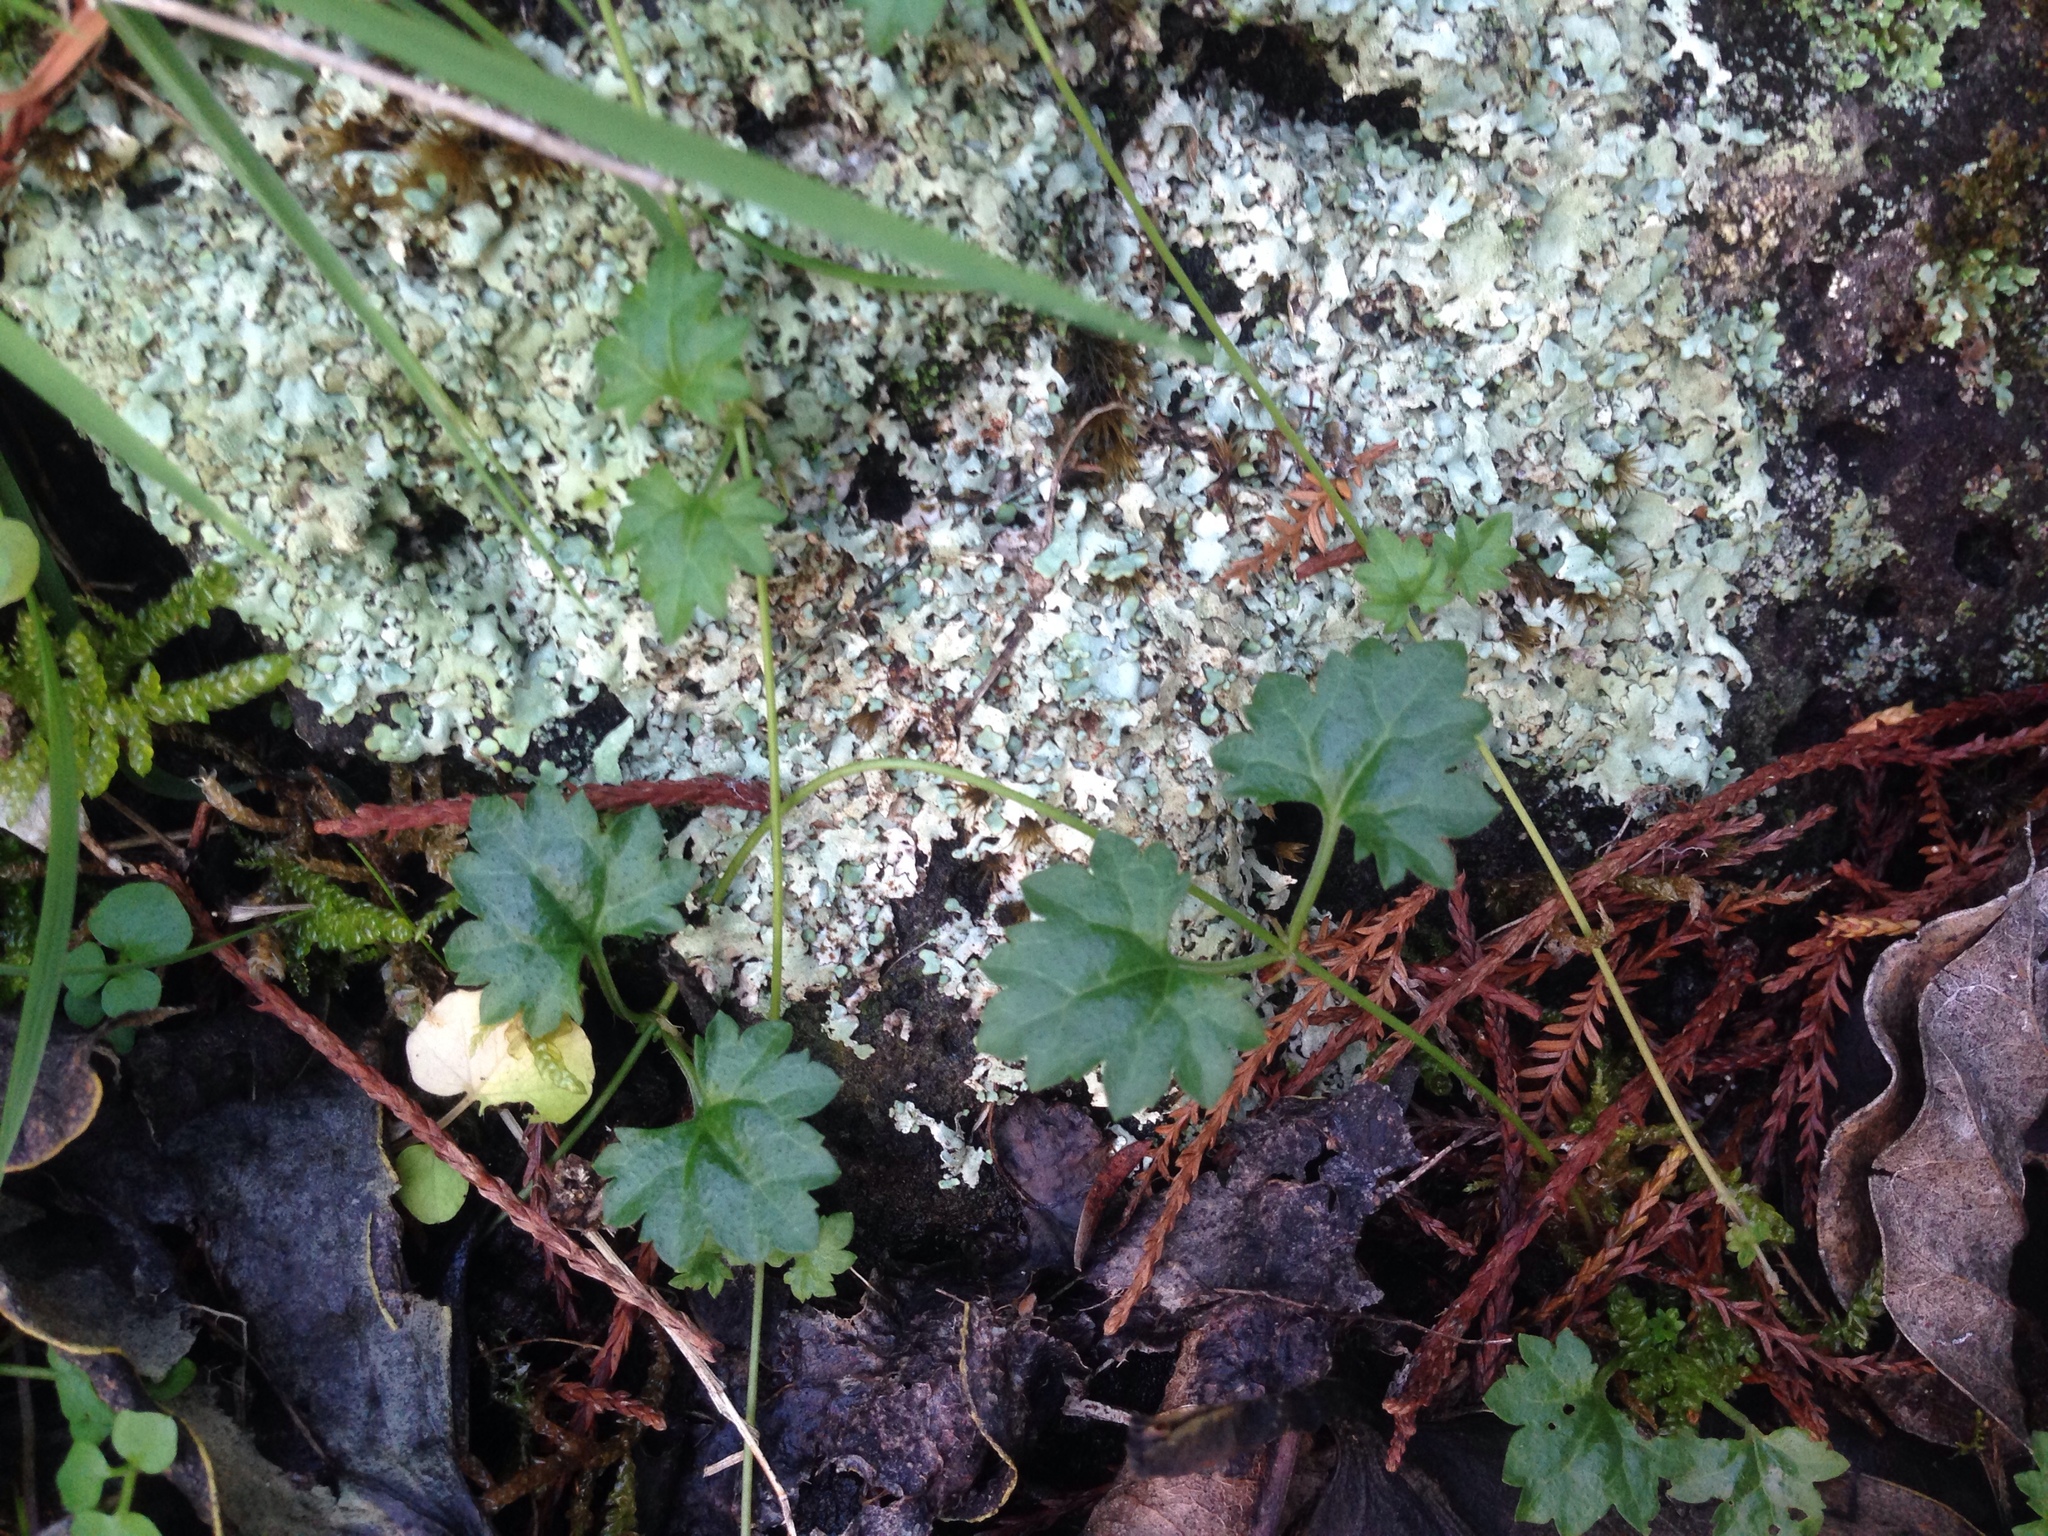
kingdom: Plantae
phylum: Tracheophyta
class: Magnoliopsida
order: Lamiales
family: Plantaginaceae
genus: Veronica
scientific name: Veronica plebeia
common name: Speedwell
